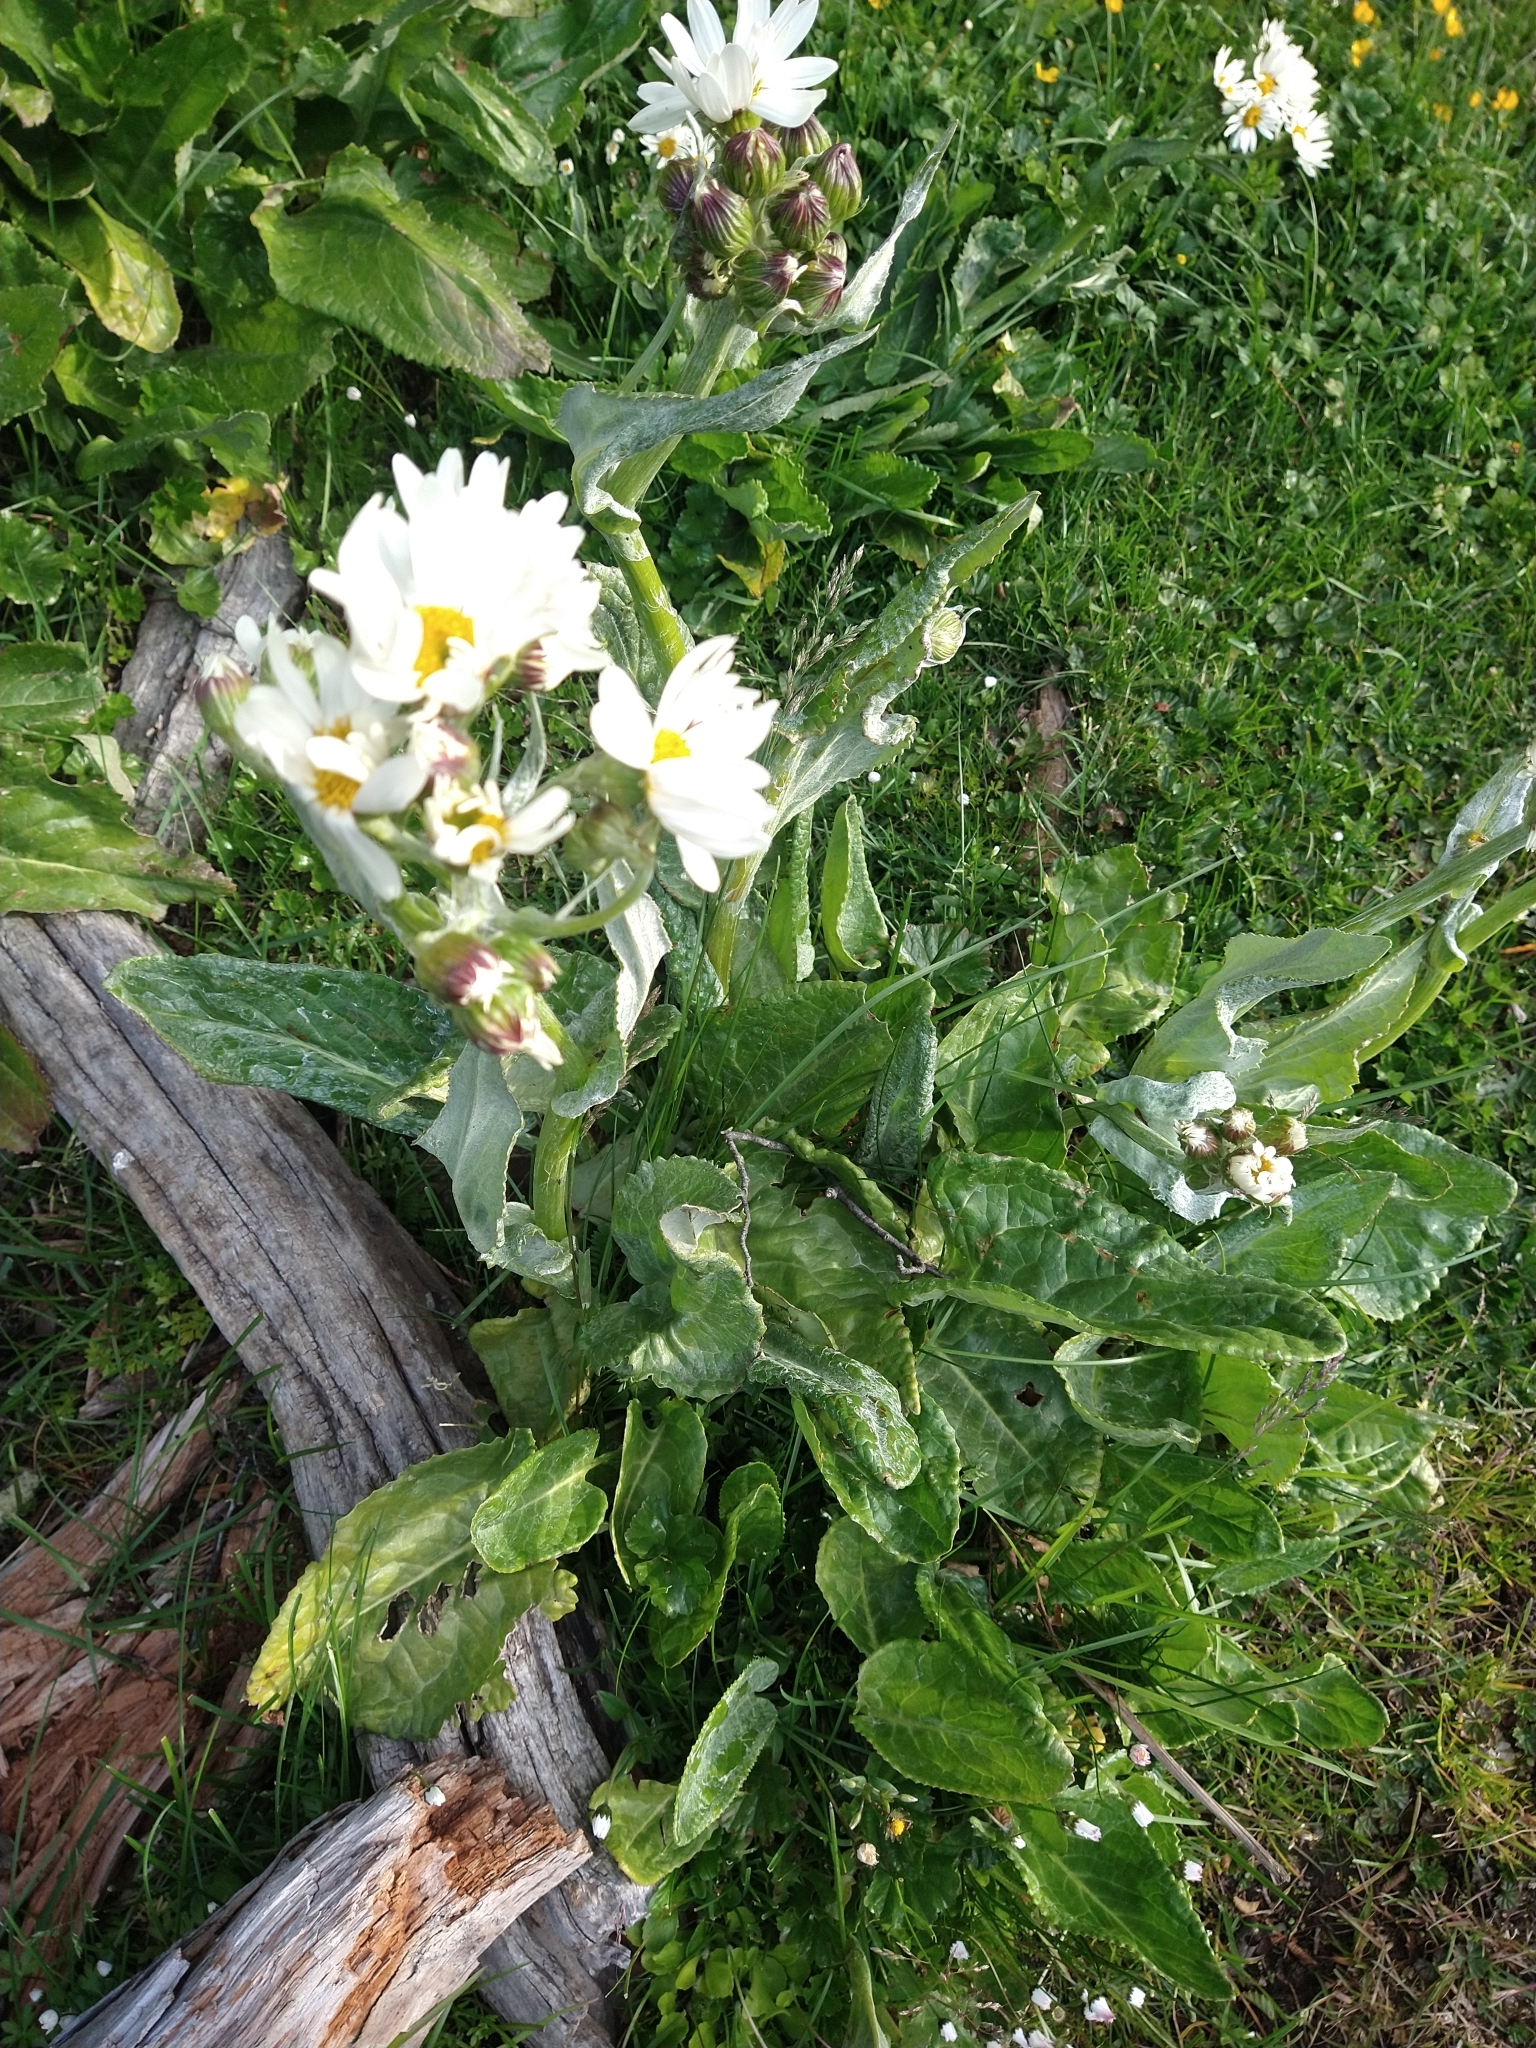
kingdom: Plantae
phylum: Tracheophyta
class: Magnoliopsida
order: Asterales
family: Asteraceae
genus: Senecio
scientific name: Senecio smithii
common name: Magellan ragwort
